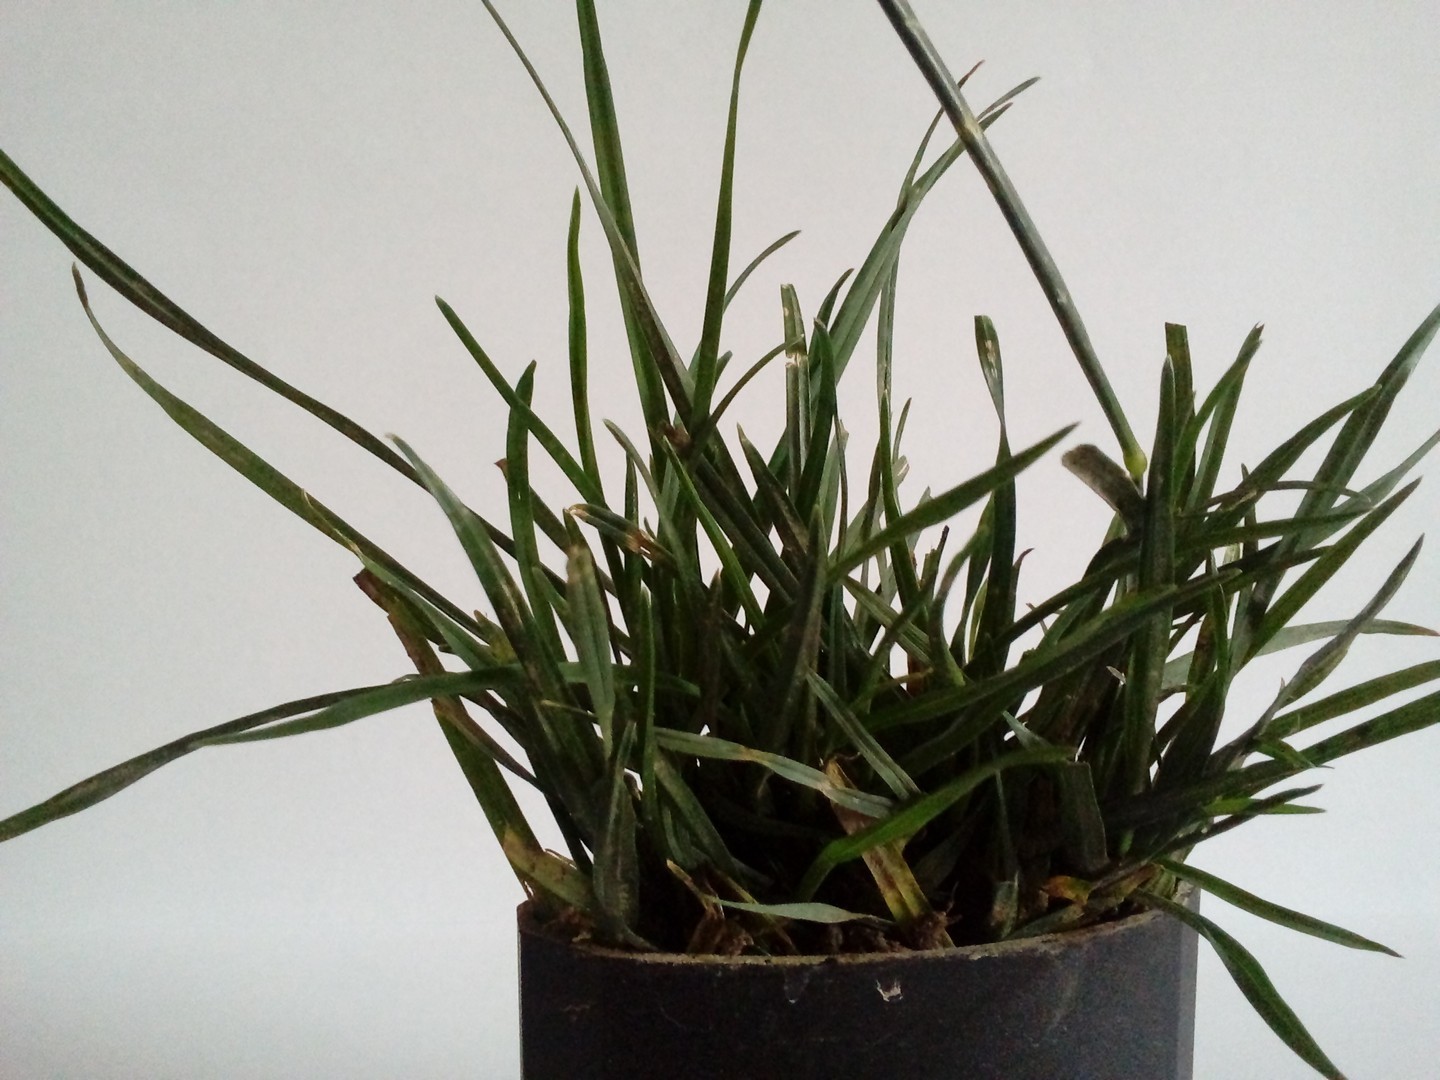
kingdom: Plantae
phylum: Tracheophyta
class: Liliopsida
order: Poales
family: Poaceae
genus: Lolium
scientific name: Lolium perenne
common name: Perennial ryegrass
